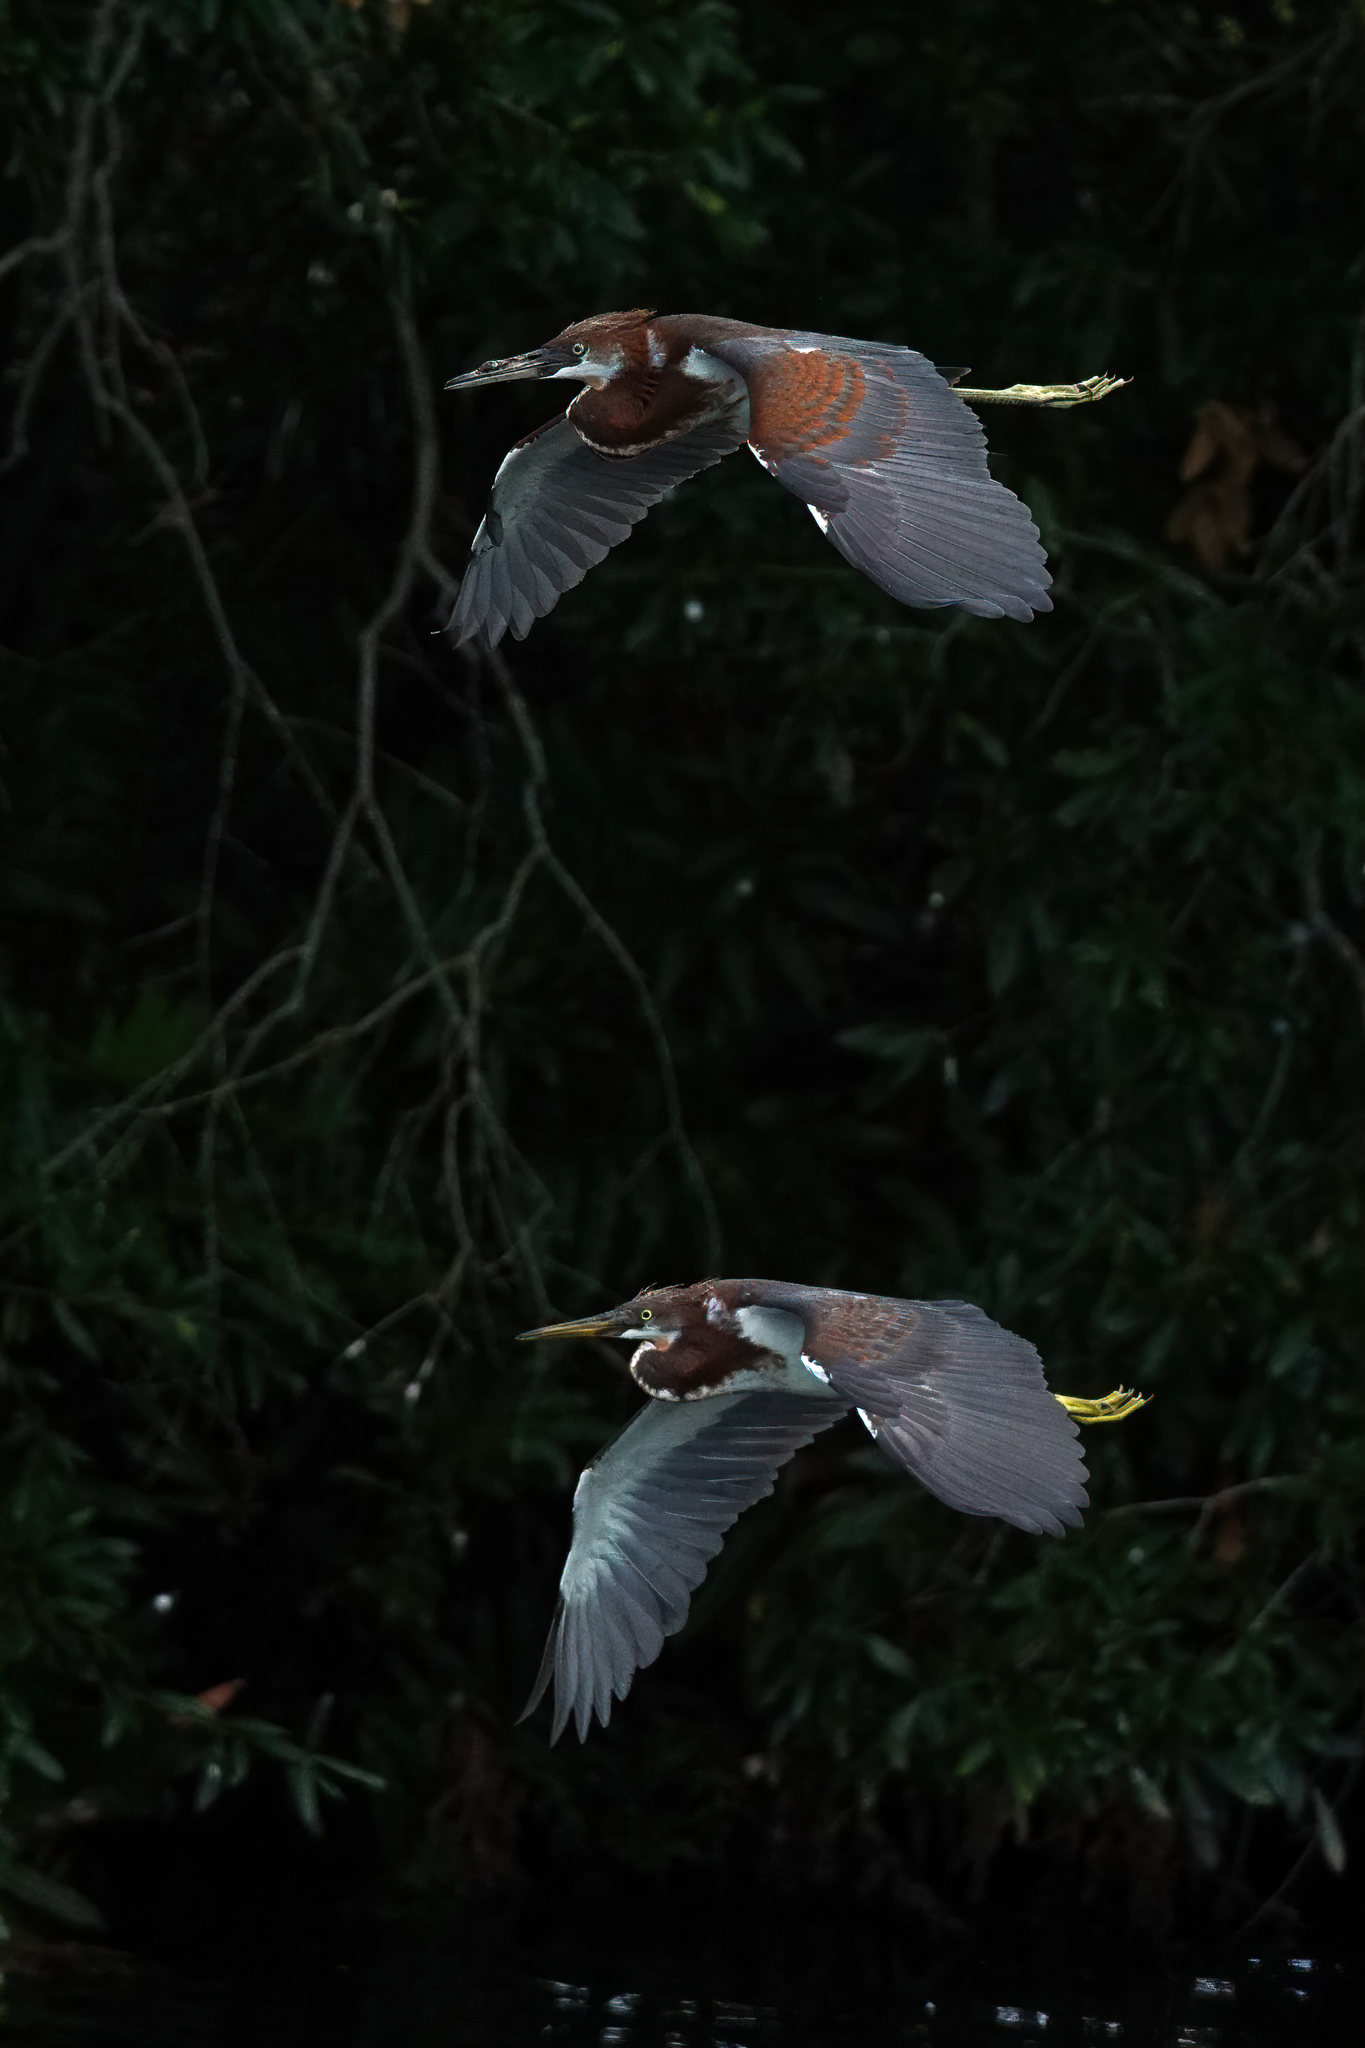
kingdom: Animalia
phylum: Chordata
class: Aves
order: Pelecaniformes
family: Ardeidae
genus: Egretta
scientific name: Egretta tricolor
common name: Tricolored heron
